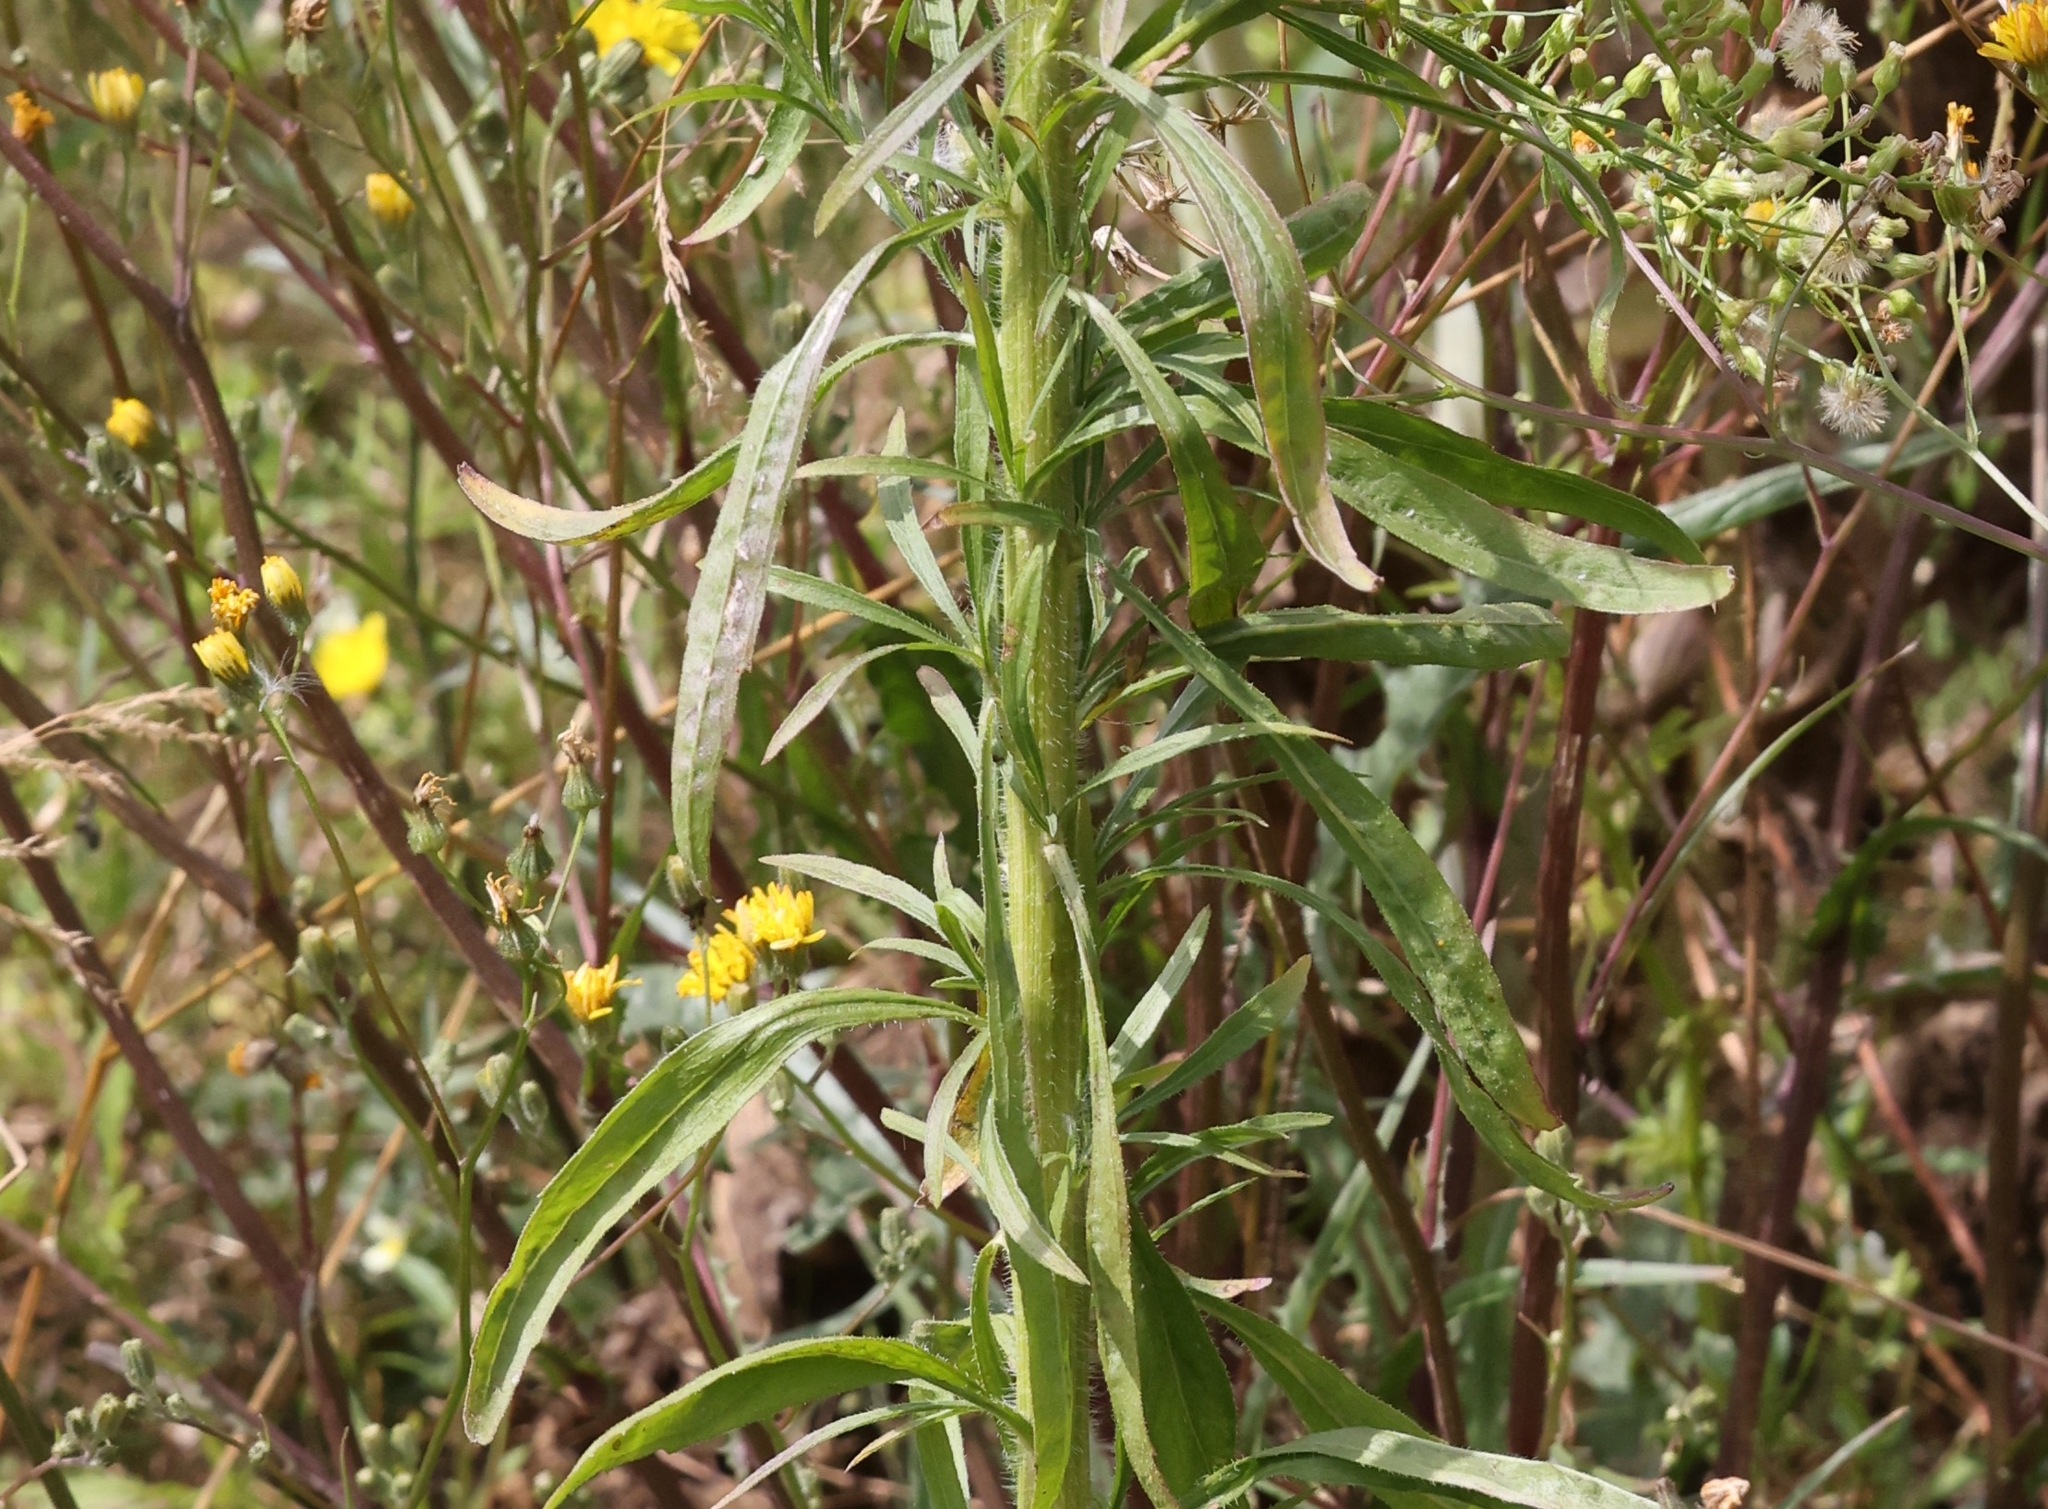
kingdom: Plantae
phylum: Tracheophyta
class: Magnoliopsida
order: Asterales
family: Asteraceae
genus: Erigeron
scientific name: Erigeron canadensis
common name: Canadian fleabane
